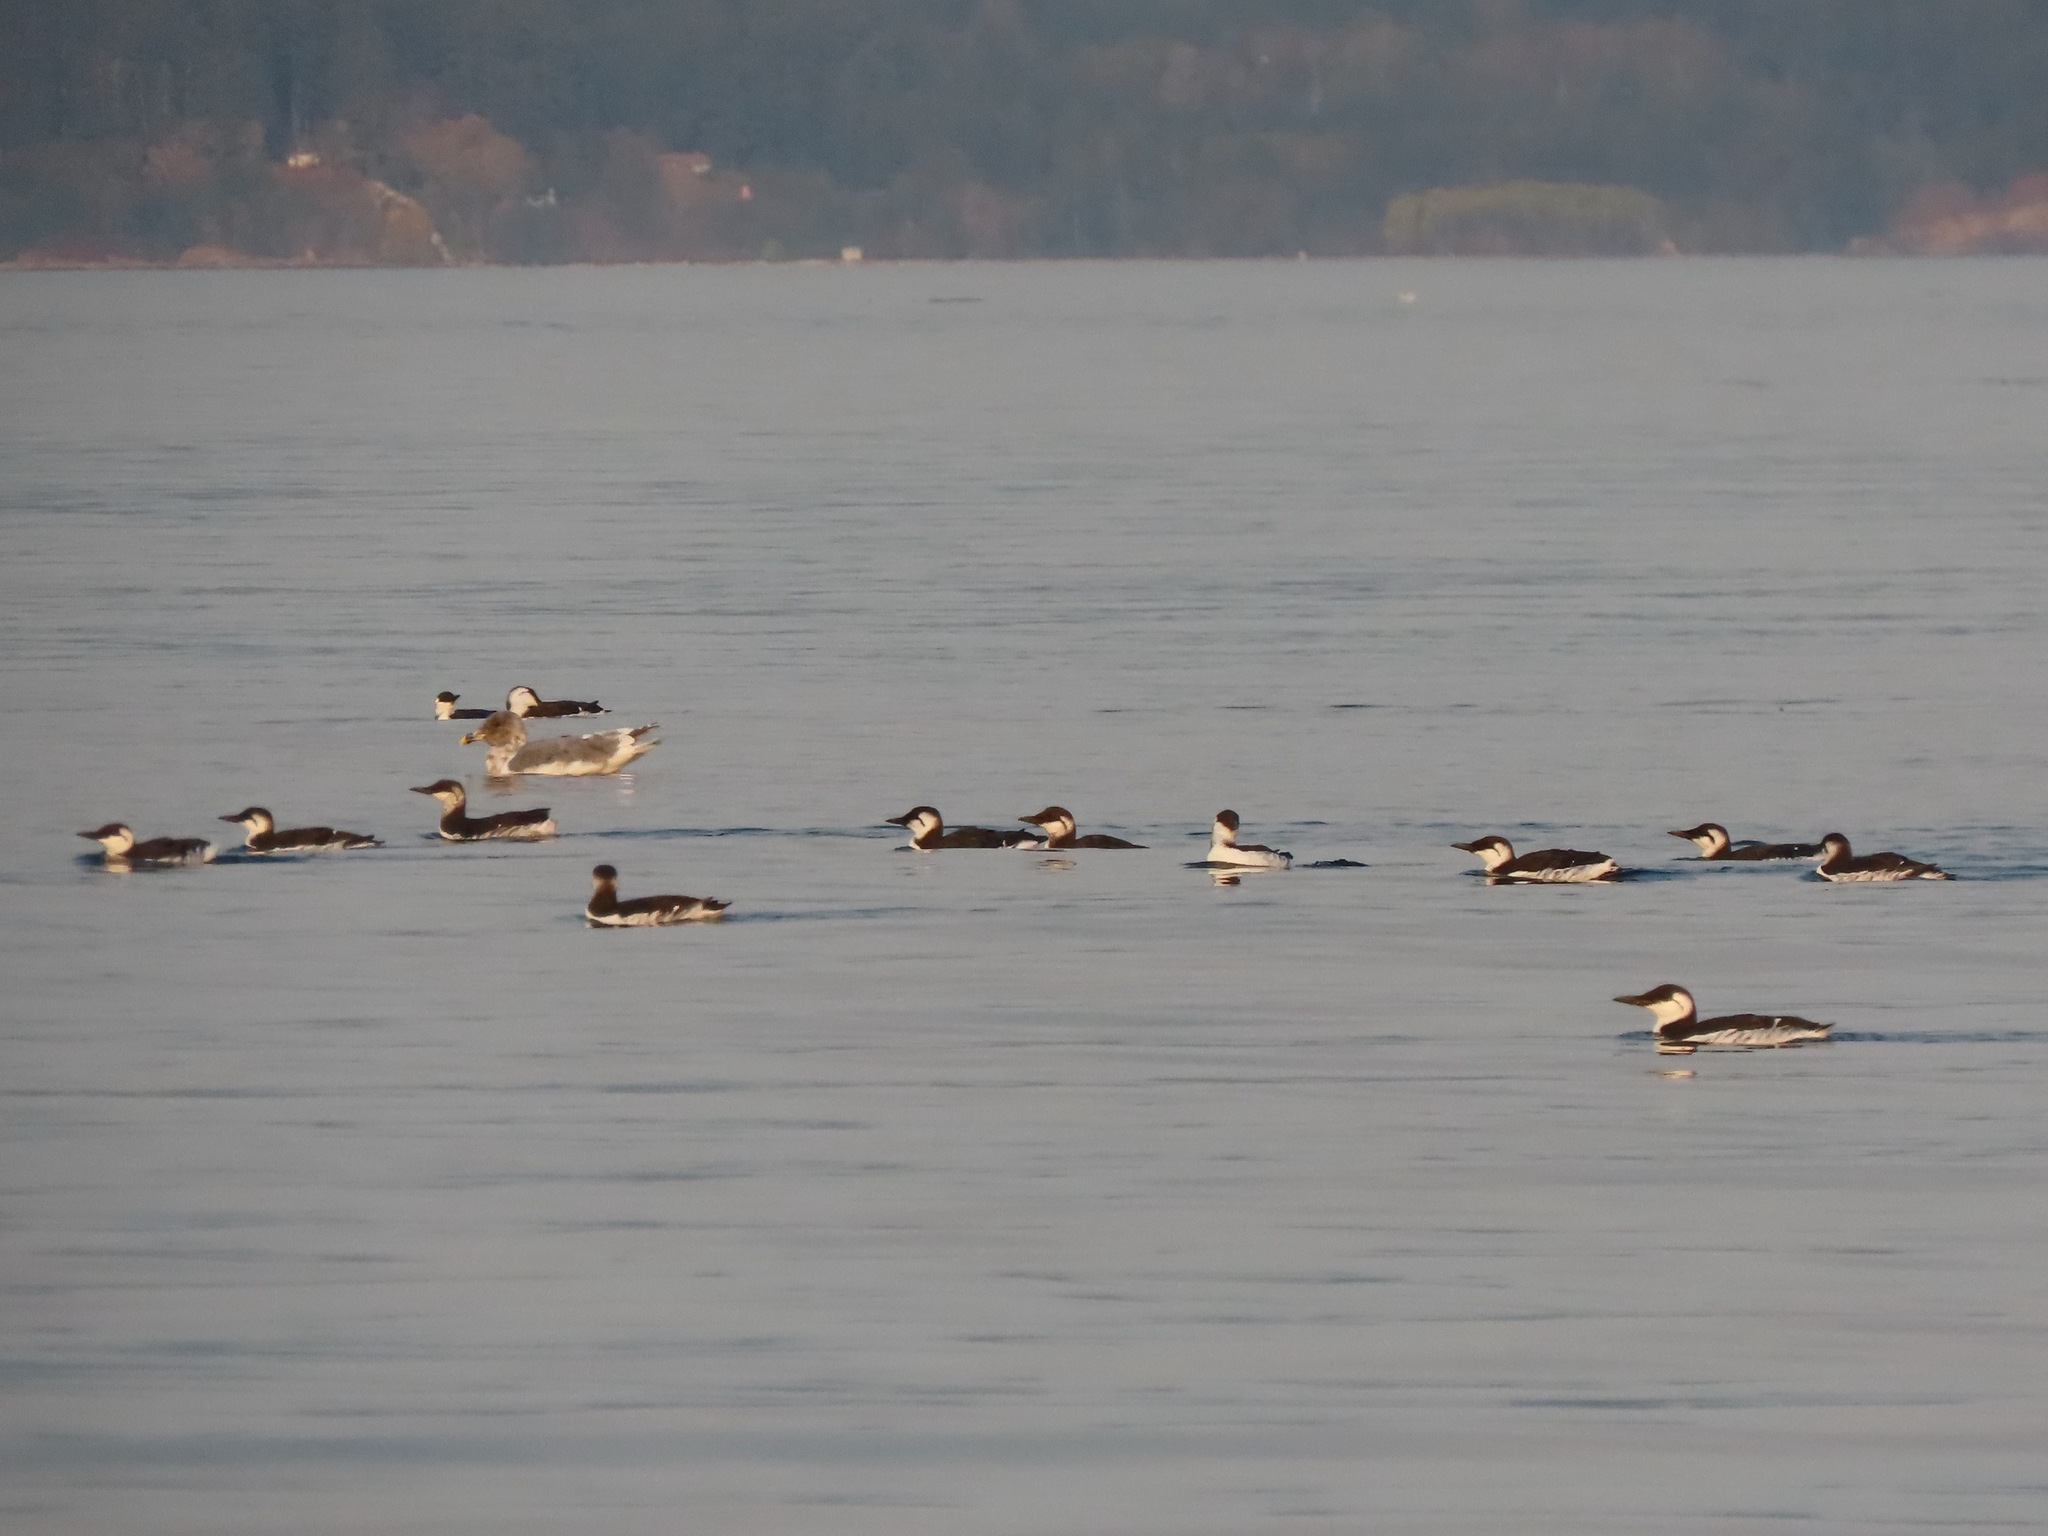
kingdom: Animalia
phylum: Chordata
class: Aves
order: Charadriiformes
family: Alcidae
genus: Uria
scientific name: Uria aalge
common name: Common murre
